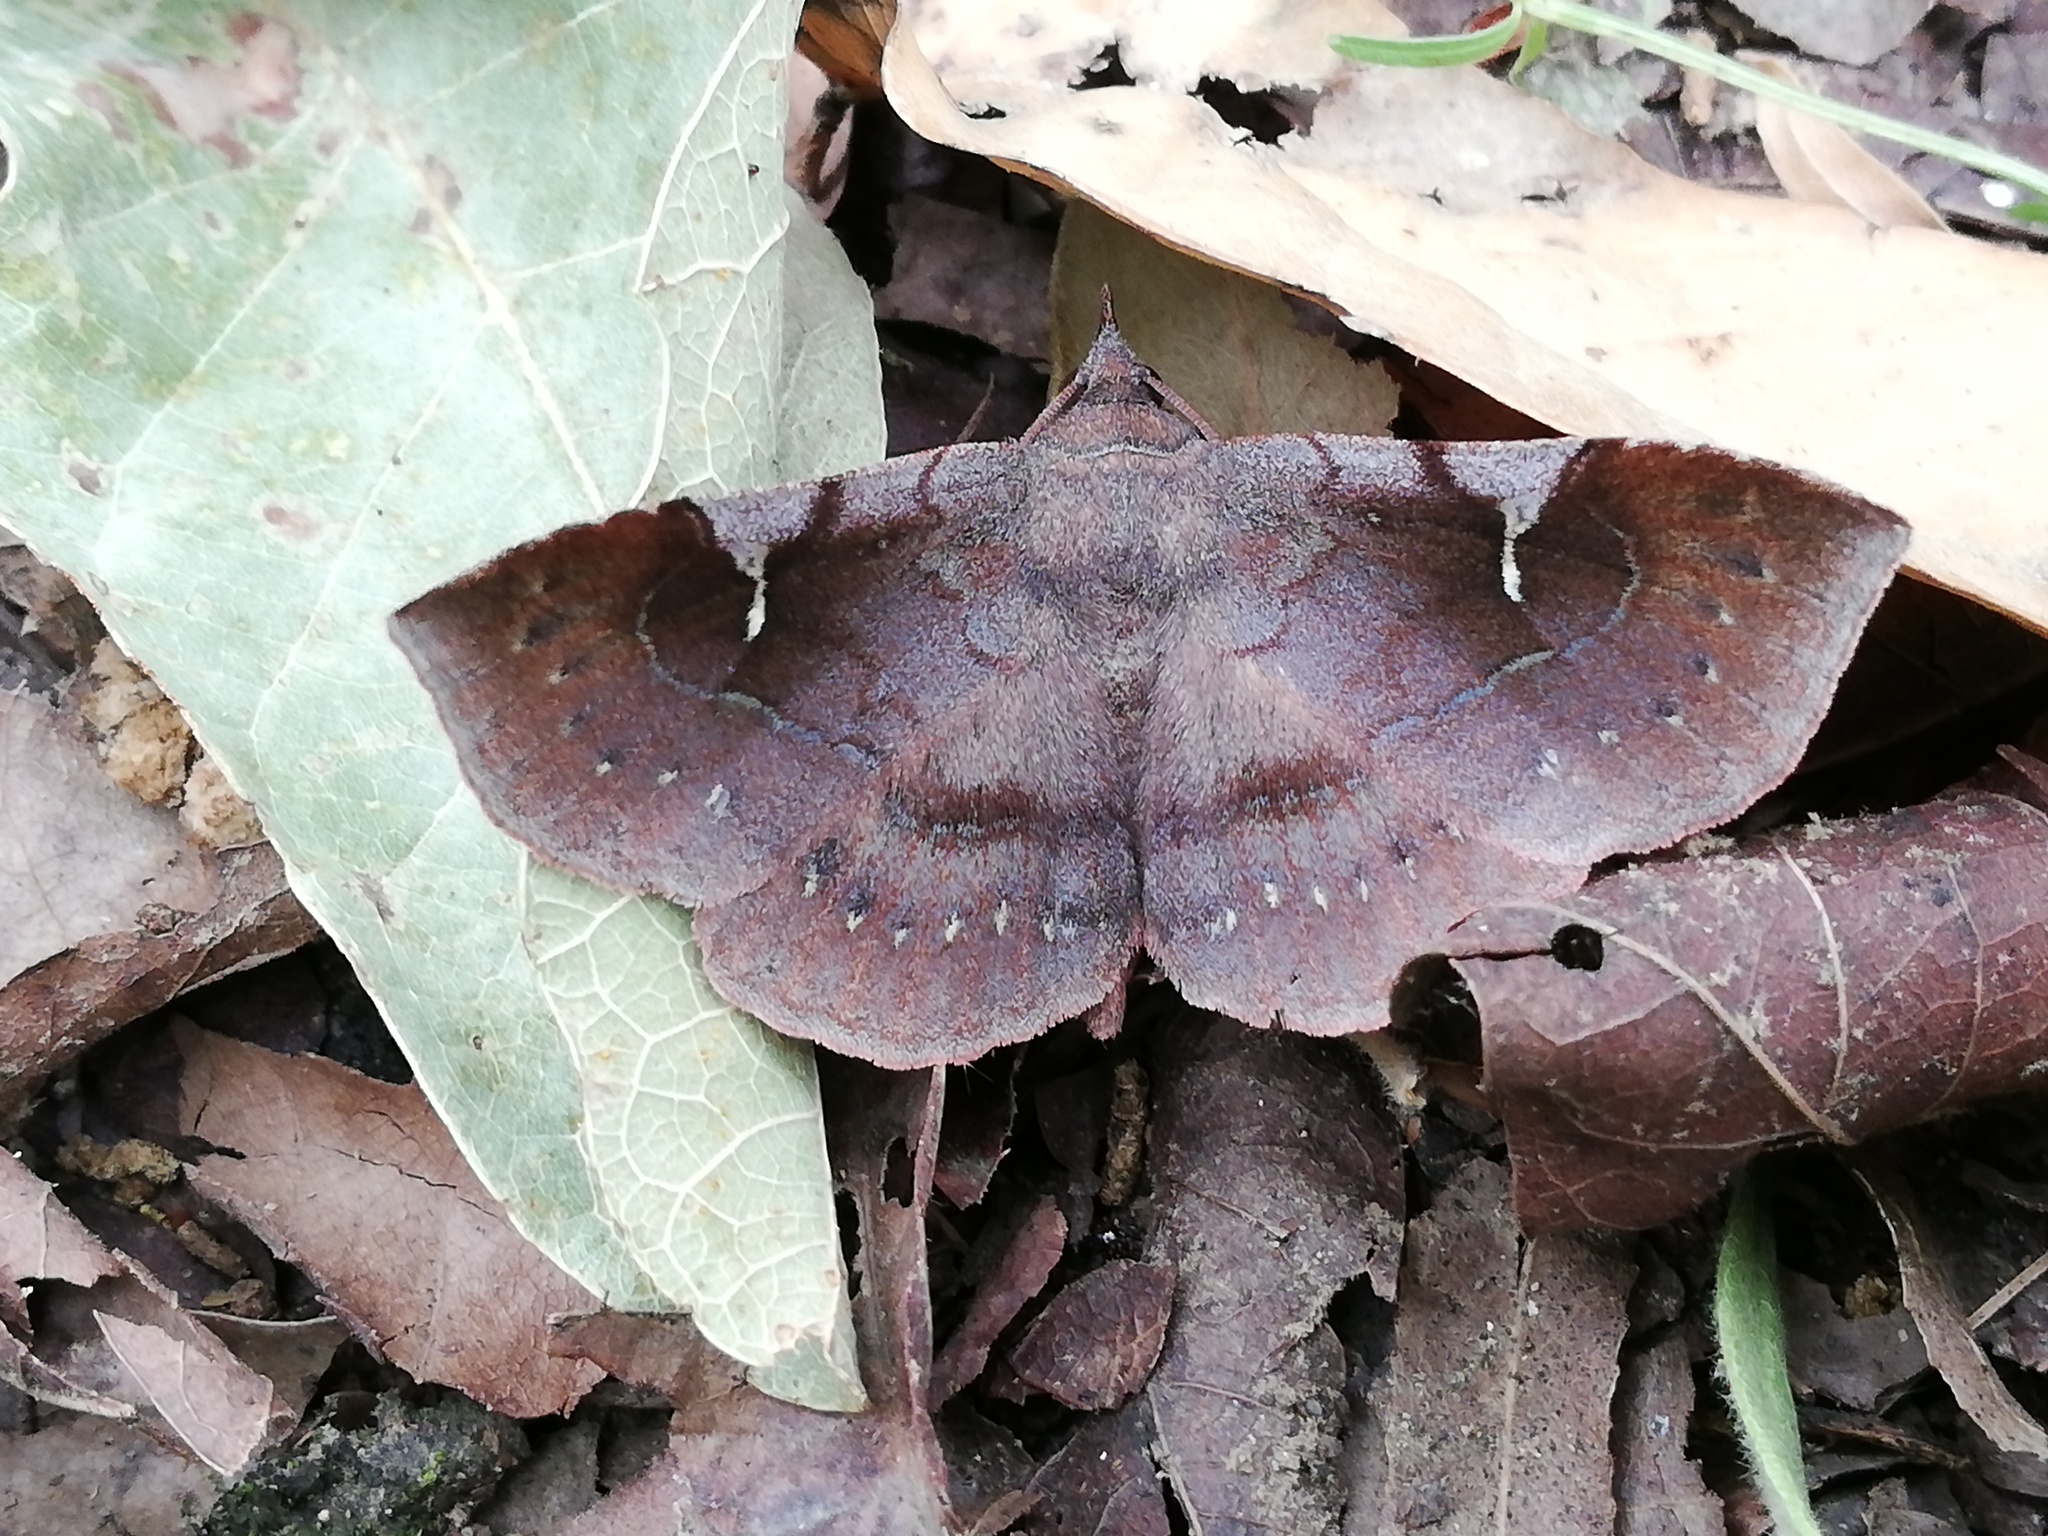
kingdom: Animalia
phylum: Arthropoda
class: Insecta
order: Lepidoptera
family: Erebidae
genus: Azeta
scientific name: Azeta schausi
